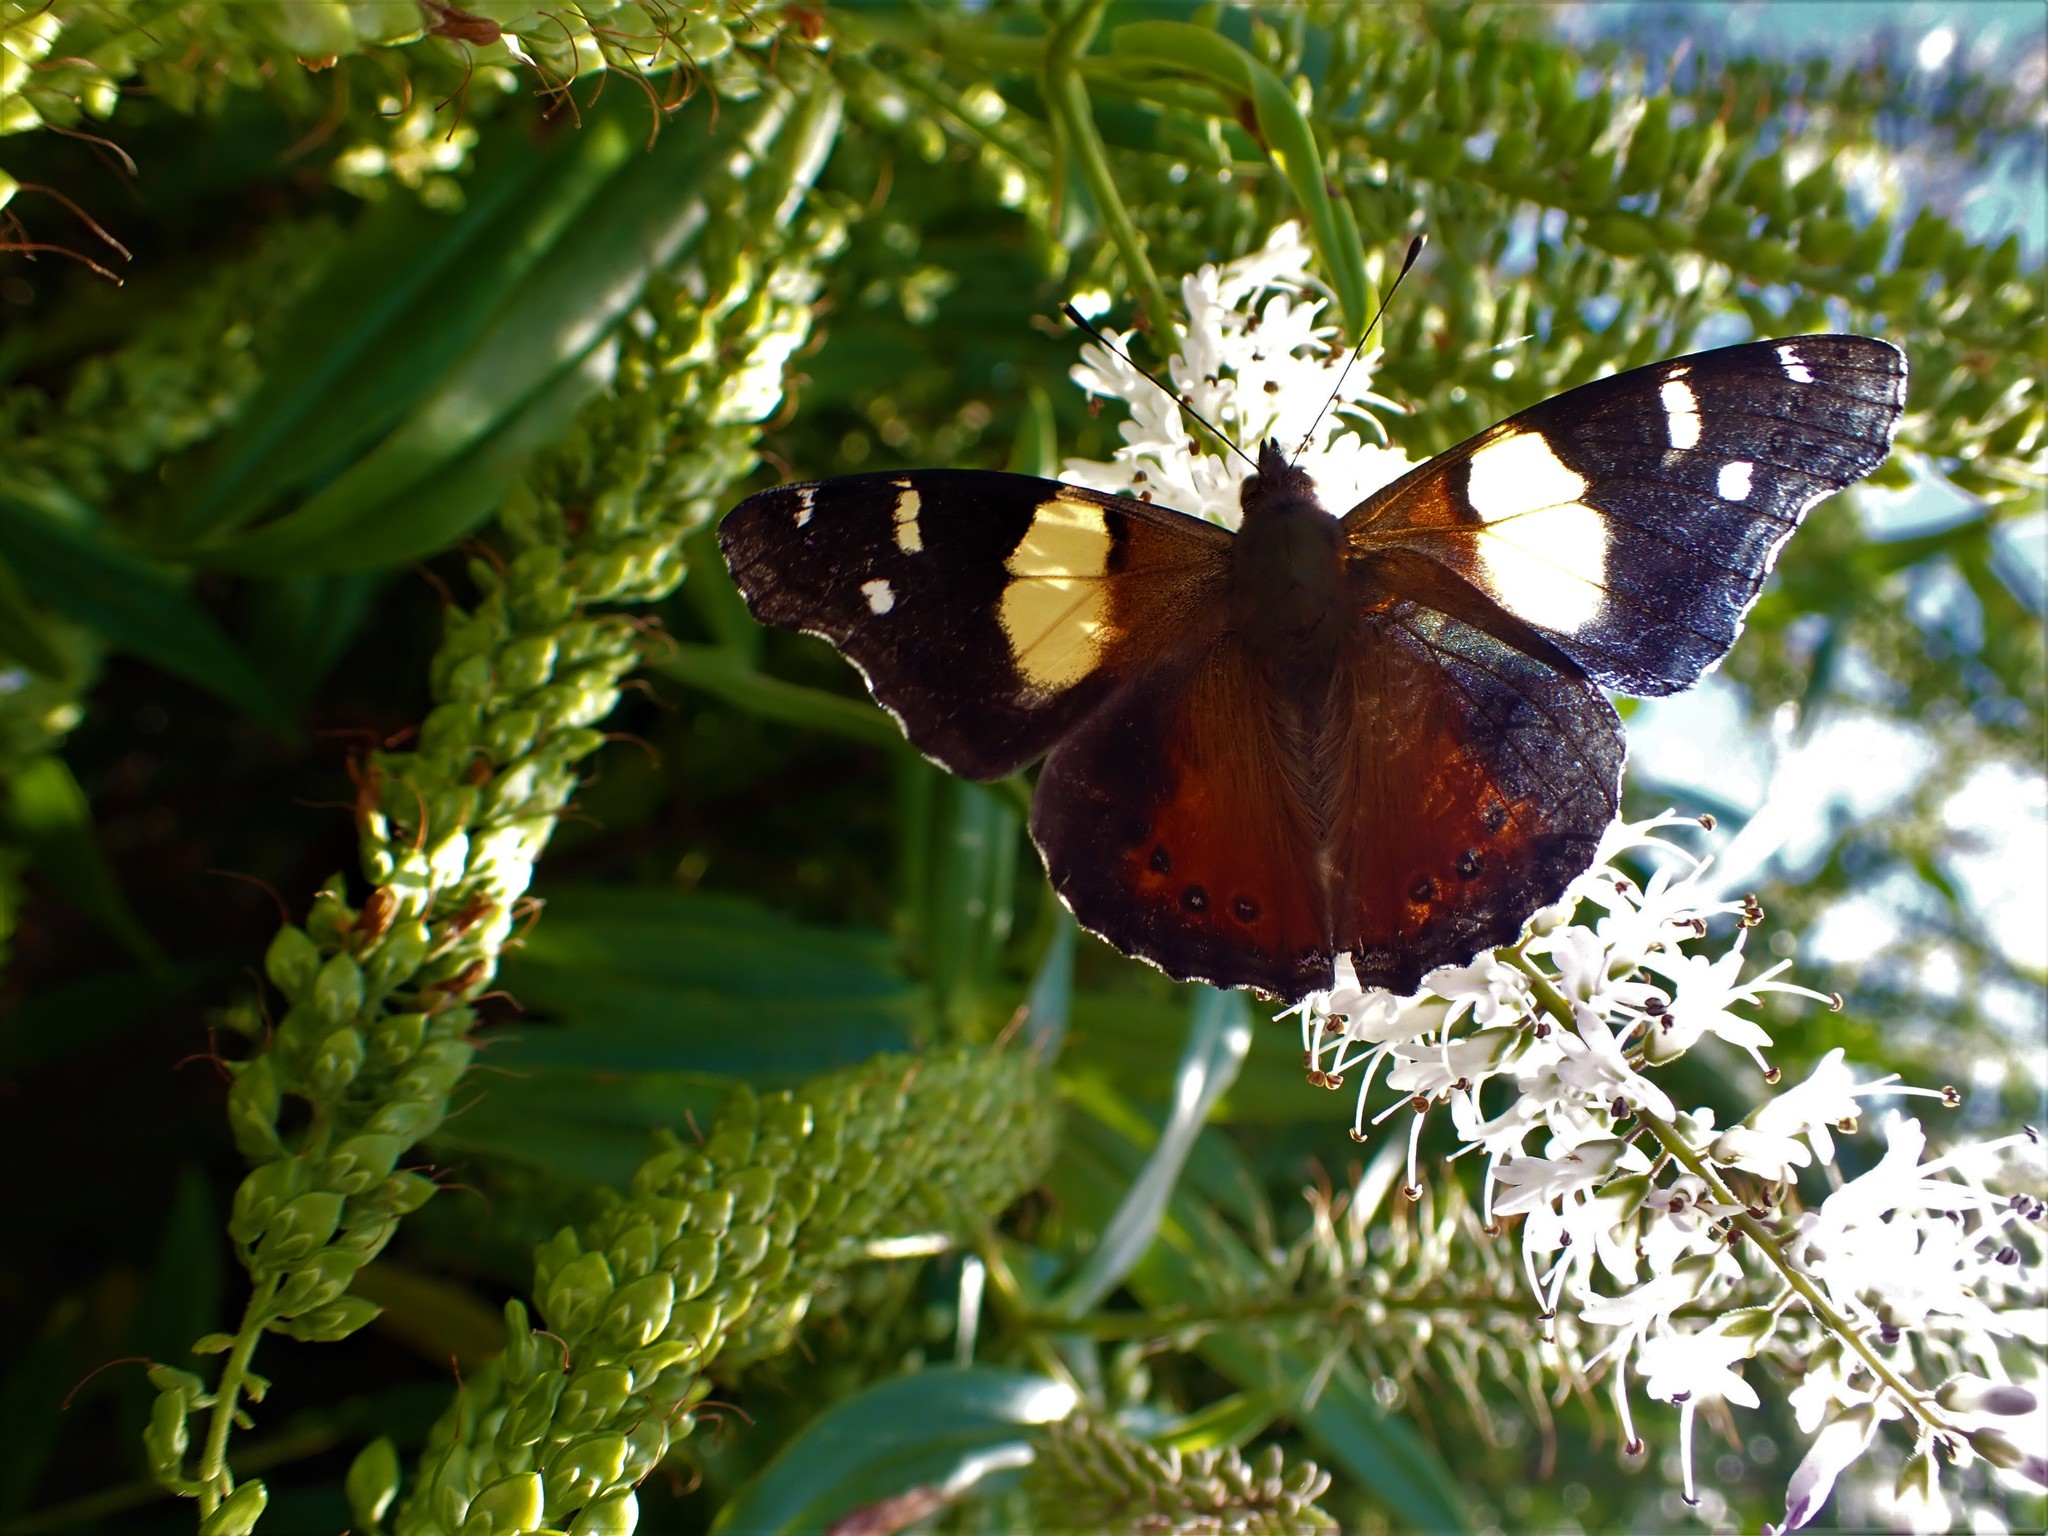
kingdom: Animalia
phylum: Arthropoda
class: Insecta
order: Lepidoptera
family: Nymphalidae
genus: Vanessa
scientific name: Vanessa itea
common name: Yellow admiral
